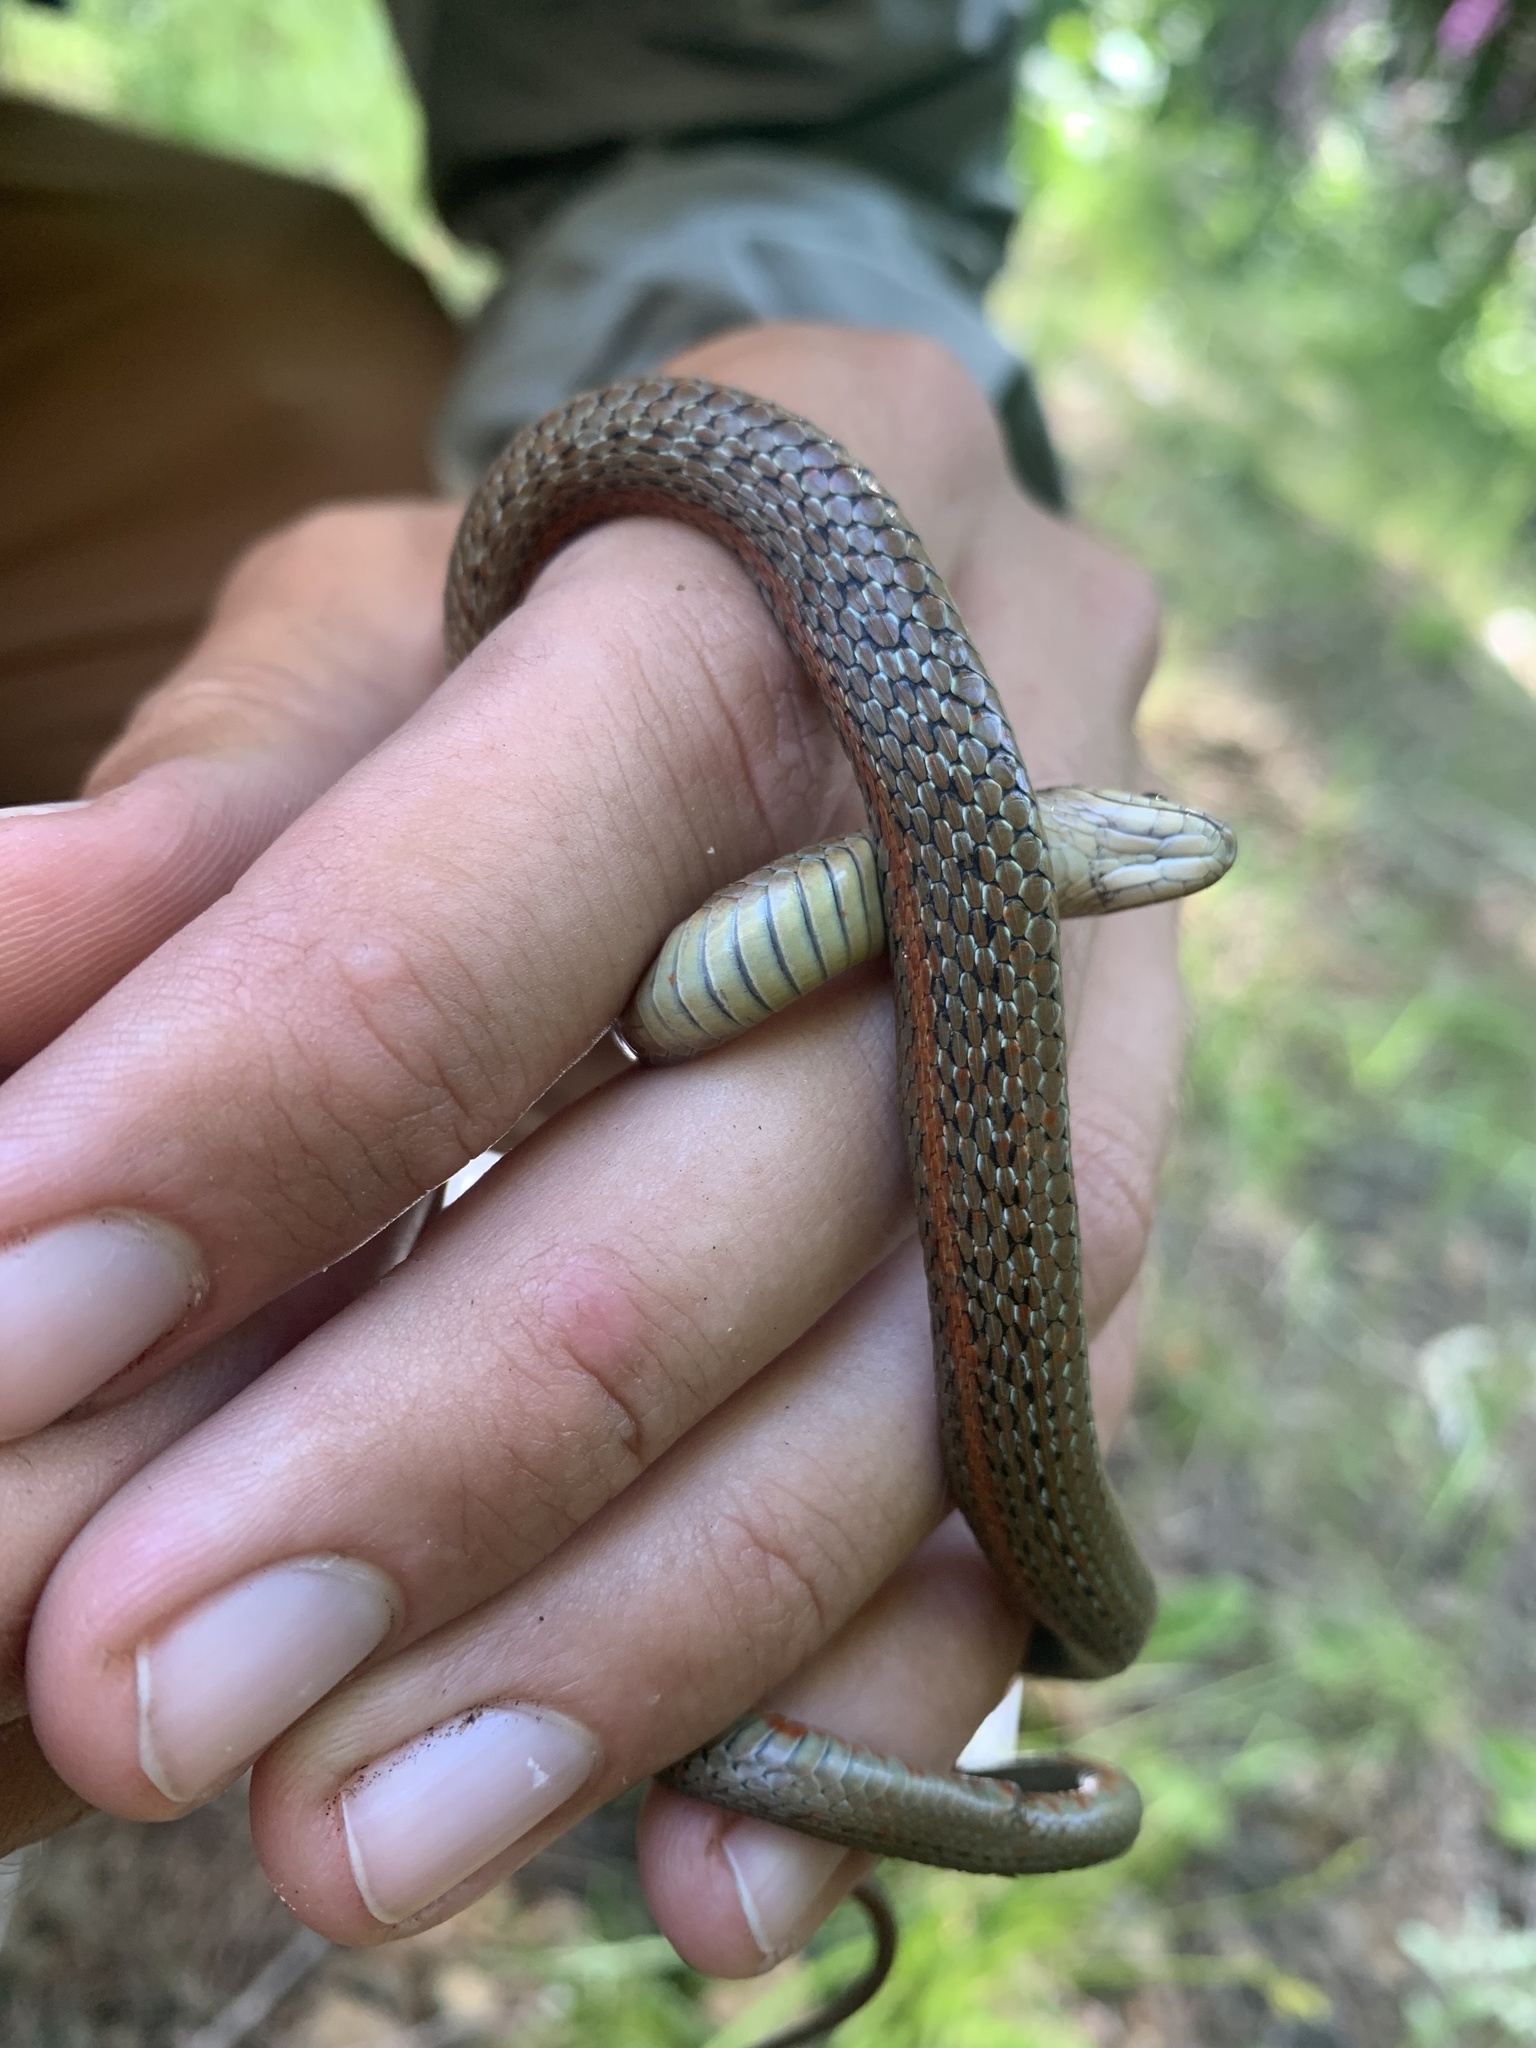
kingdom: Animalia
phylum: Chordata
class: Squamata
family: Colubridae
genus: Thamnophis
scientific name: Thamnophis ordinoides
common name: Northwestern garter snake
